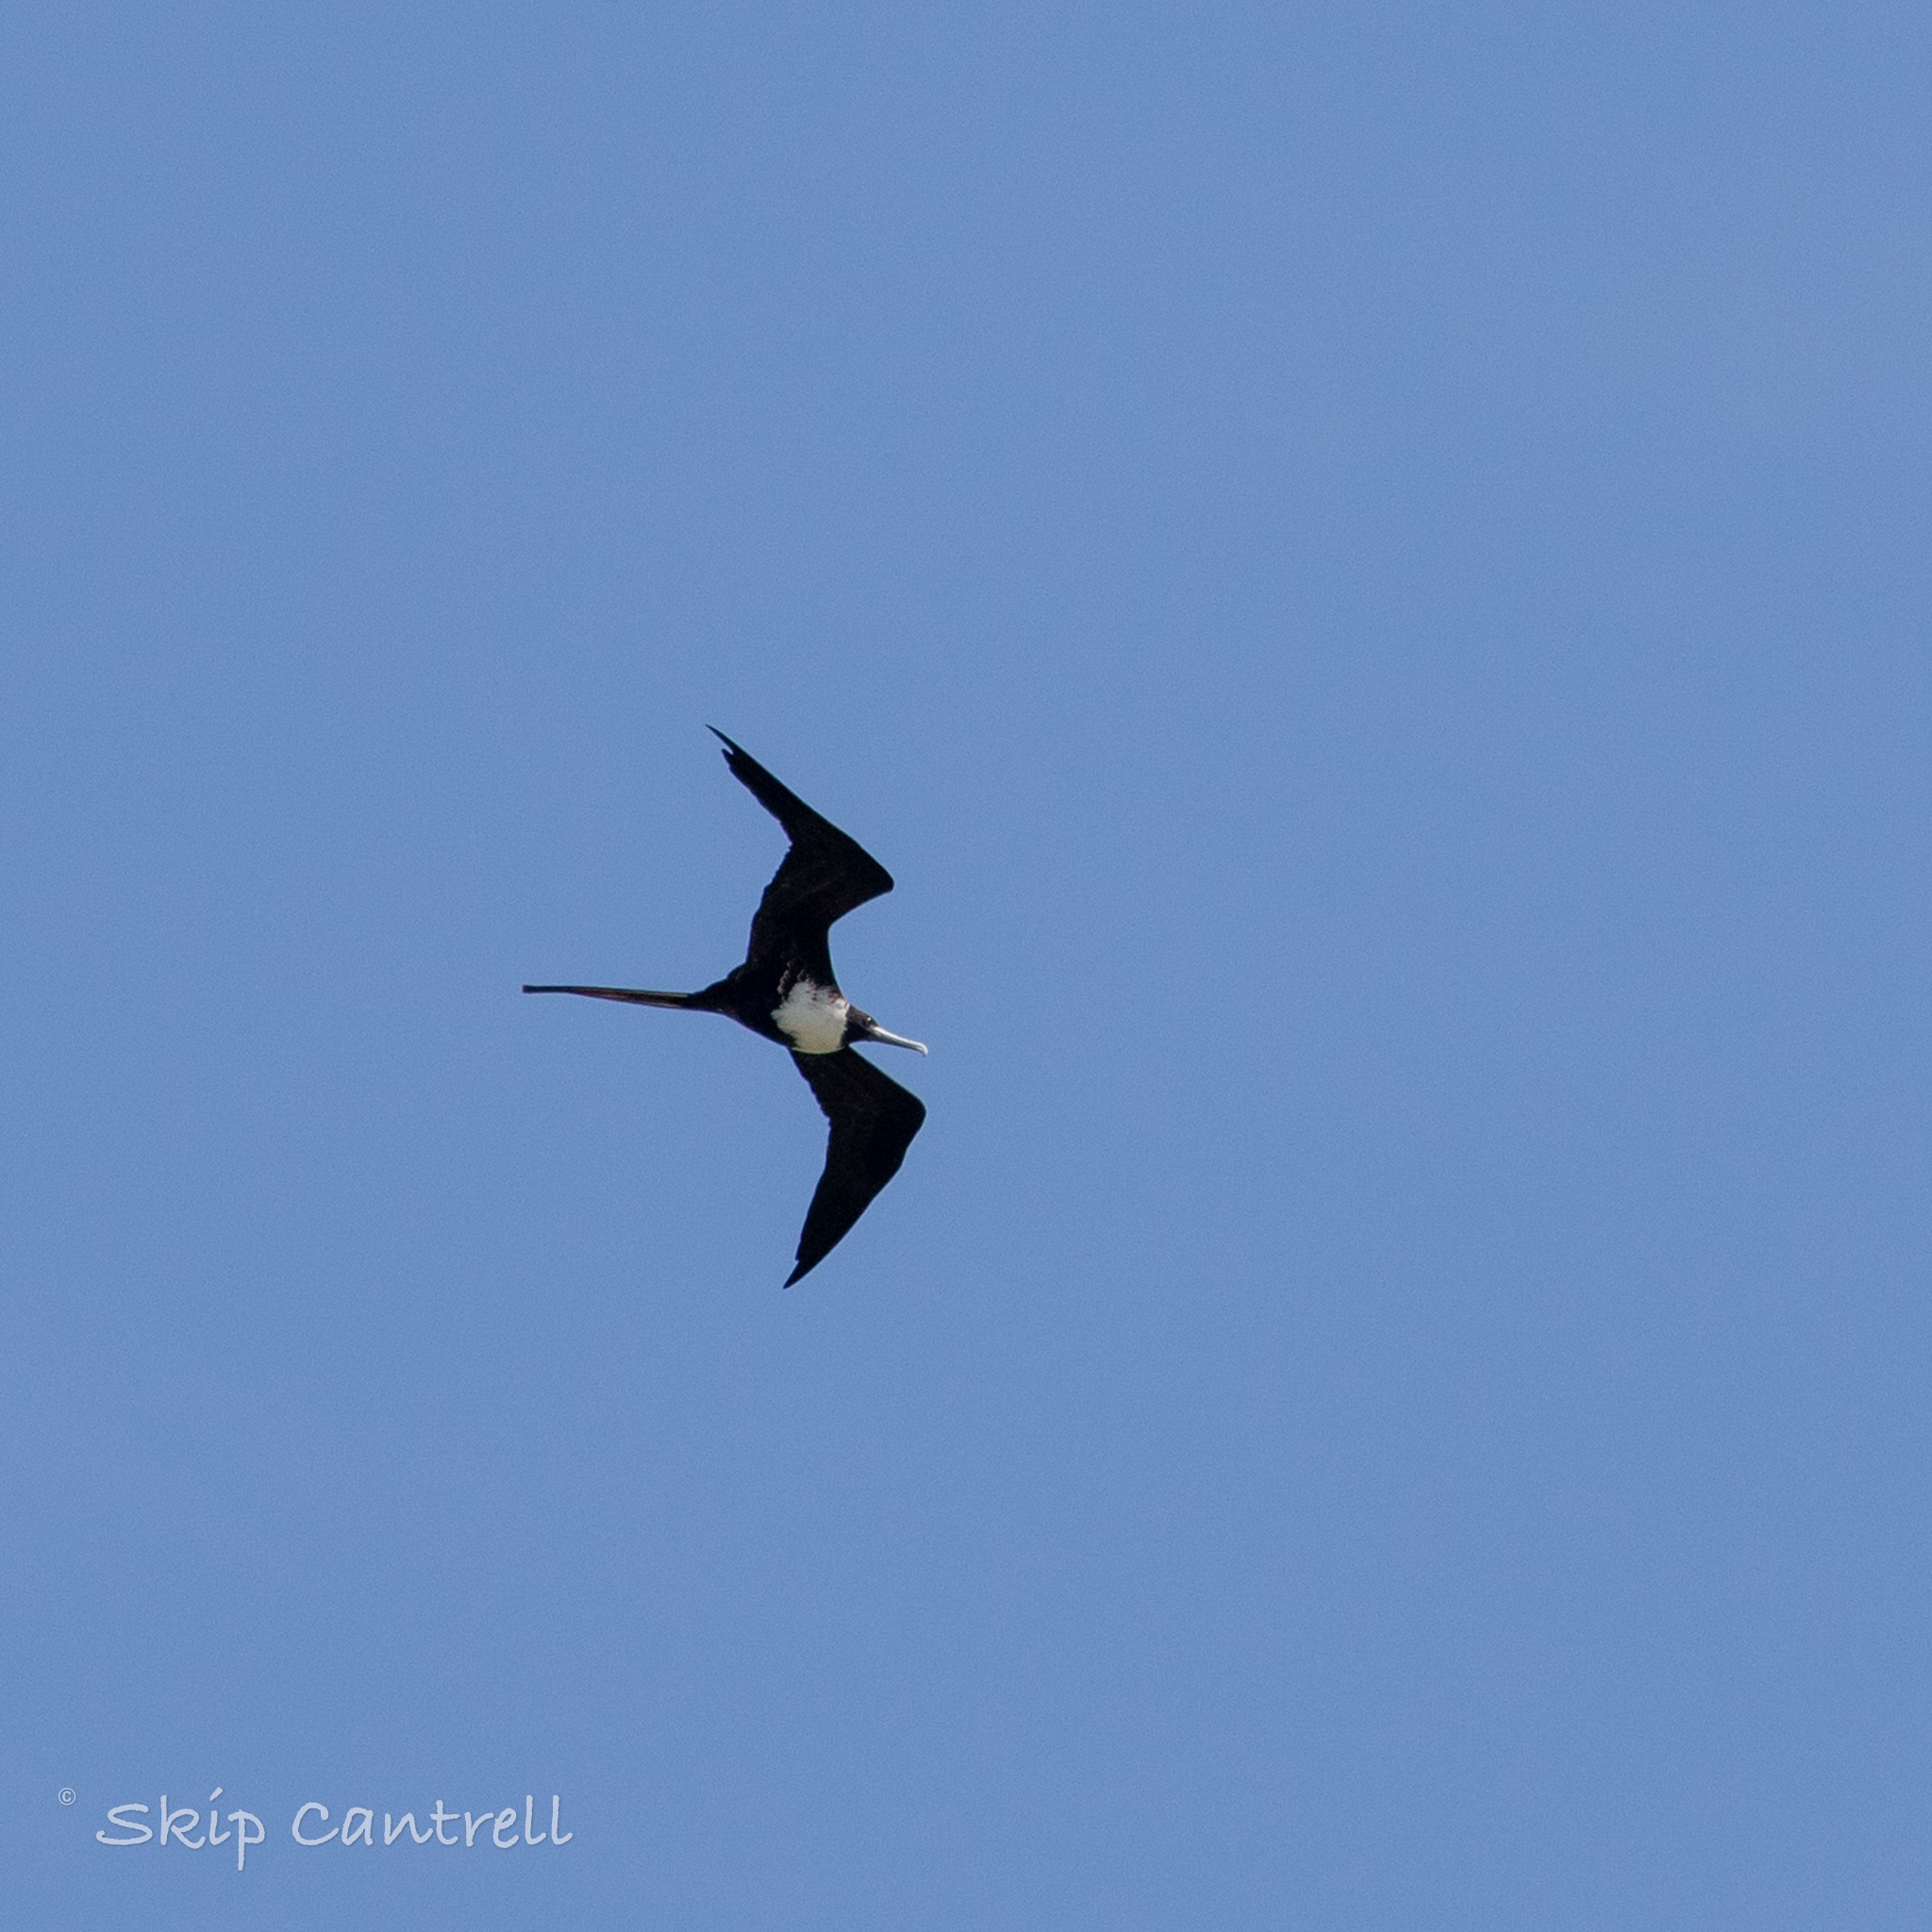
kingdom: Animalia
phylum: Chordata
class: Aves
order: Suliformes
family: Fregatidae
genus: Fregata
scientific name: Fregata magnificens
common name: Magnificent frigatebird
